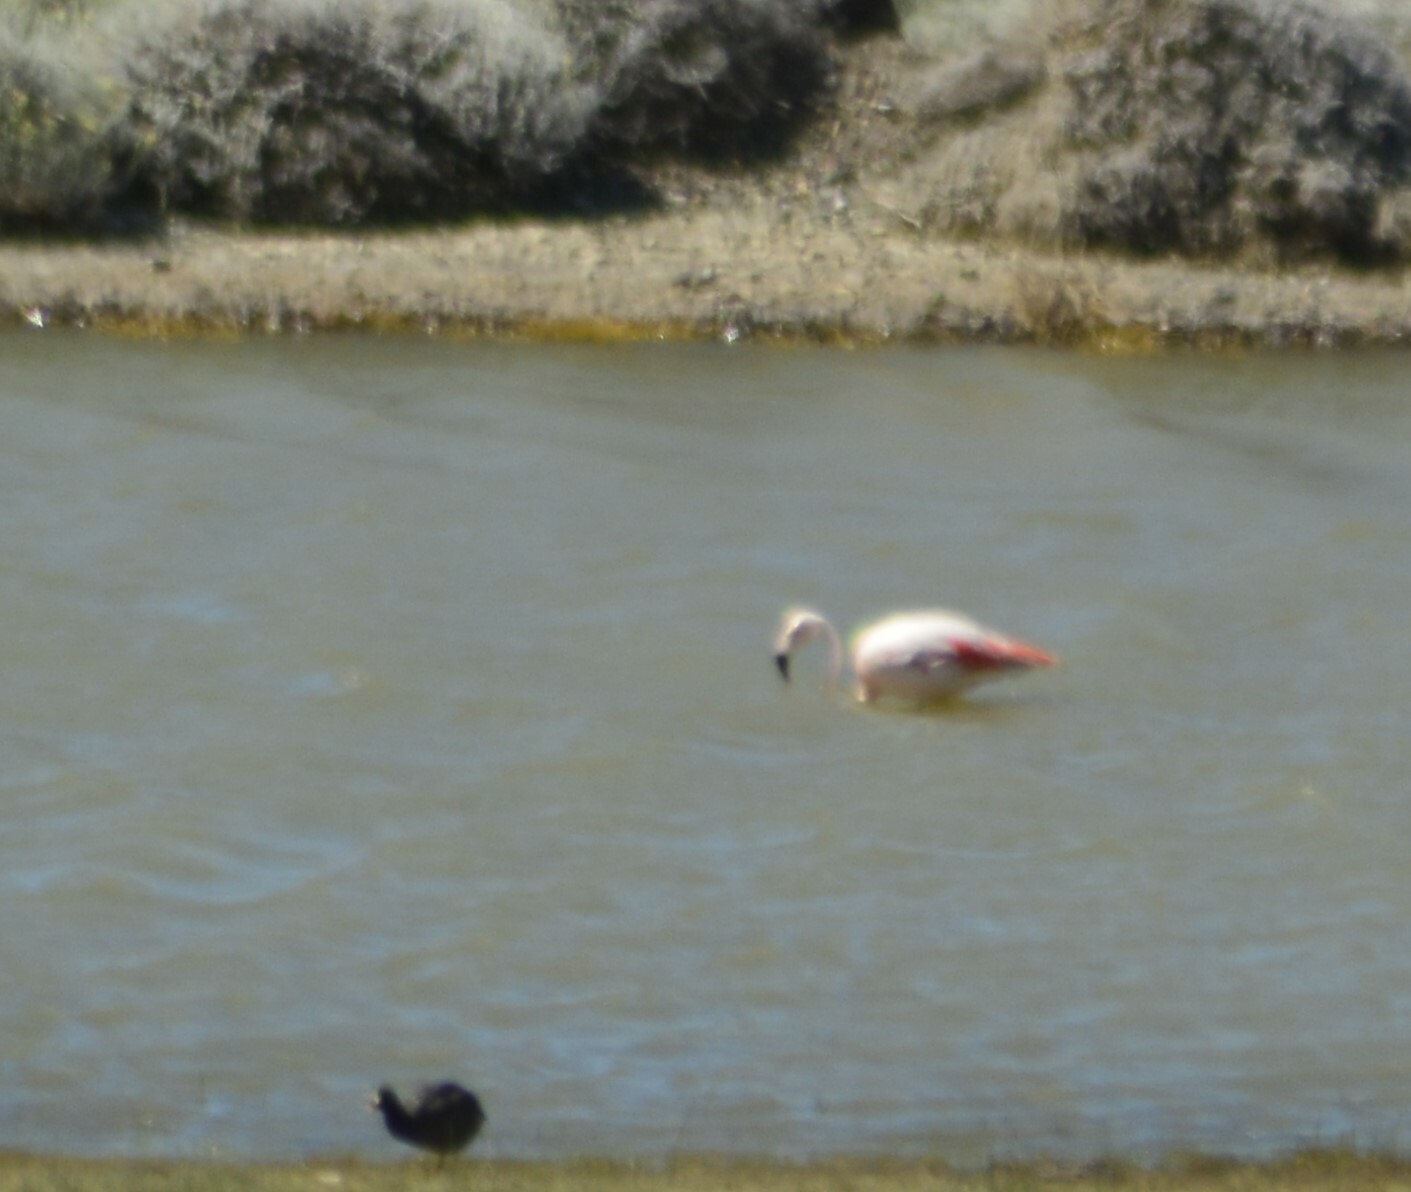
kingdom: Animalia
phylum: Chordata
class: Aves
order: Phoenicopteriformes
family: Phoenicopteridae
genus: Phoenicopterus
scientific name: Phoenicopterus chilensis
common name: Chilean flamingo
